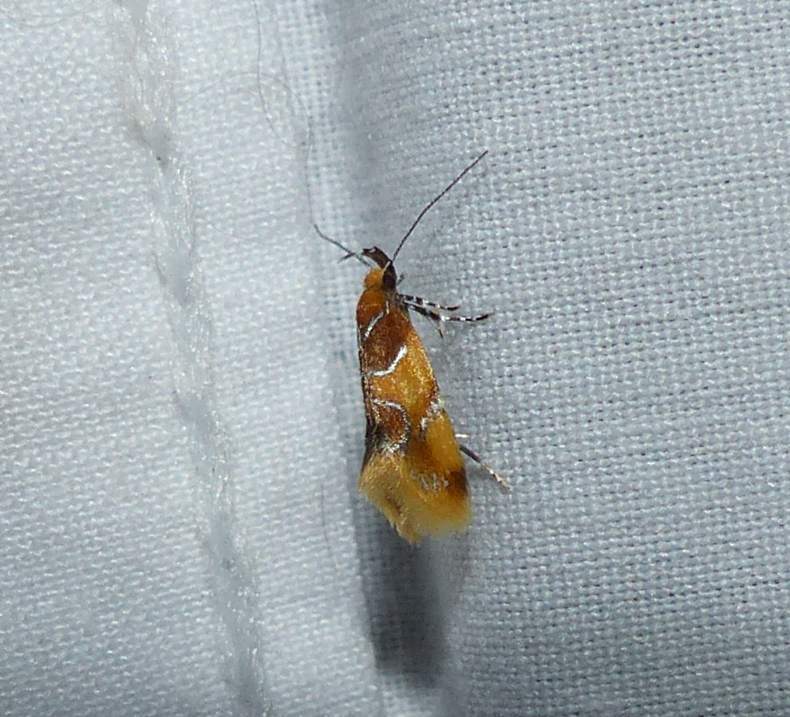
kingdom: Animalia
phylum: Arthropoda
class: Insecta
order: Lepidoptera
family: Oecophoridae
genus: Callima
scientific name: Callima argenticinctella
